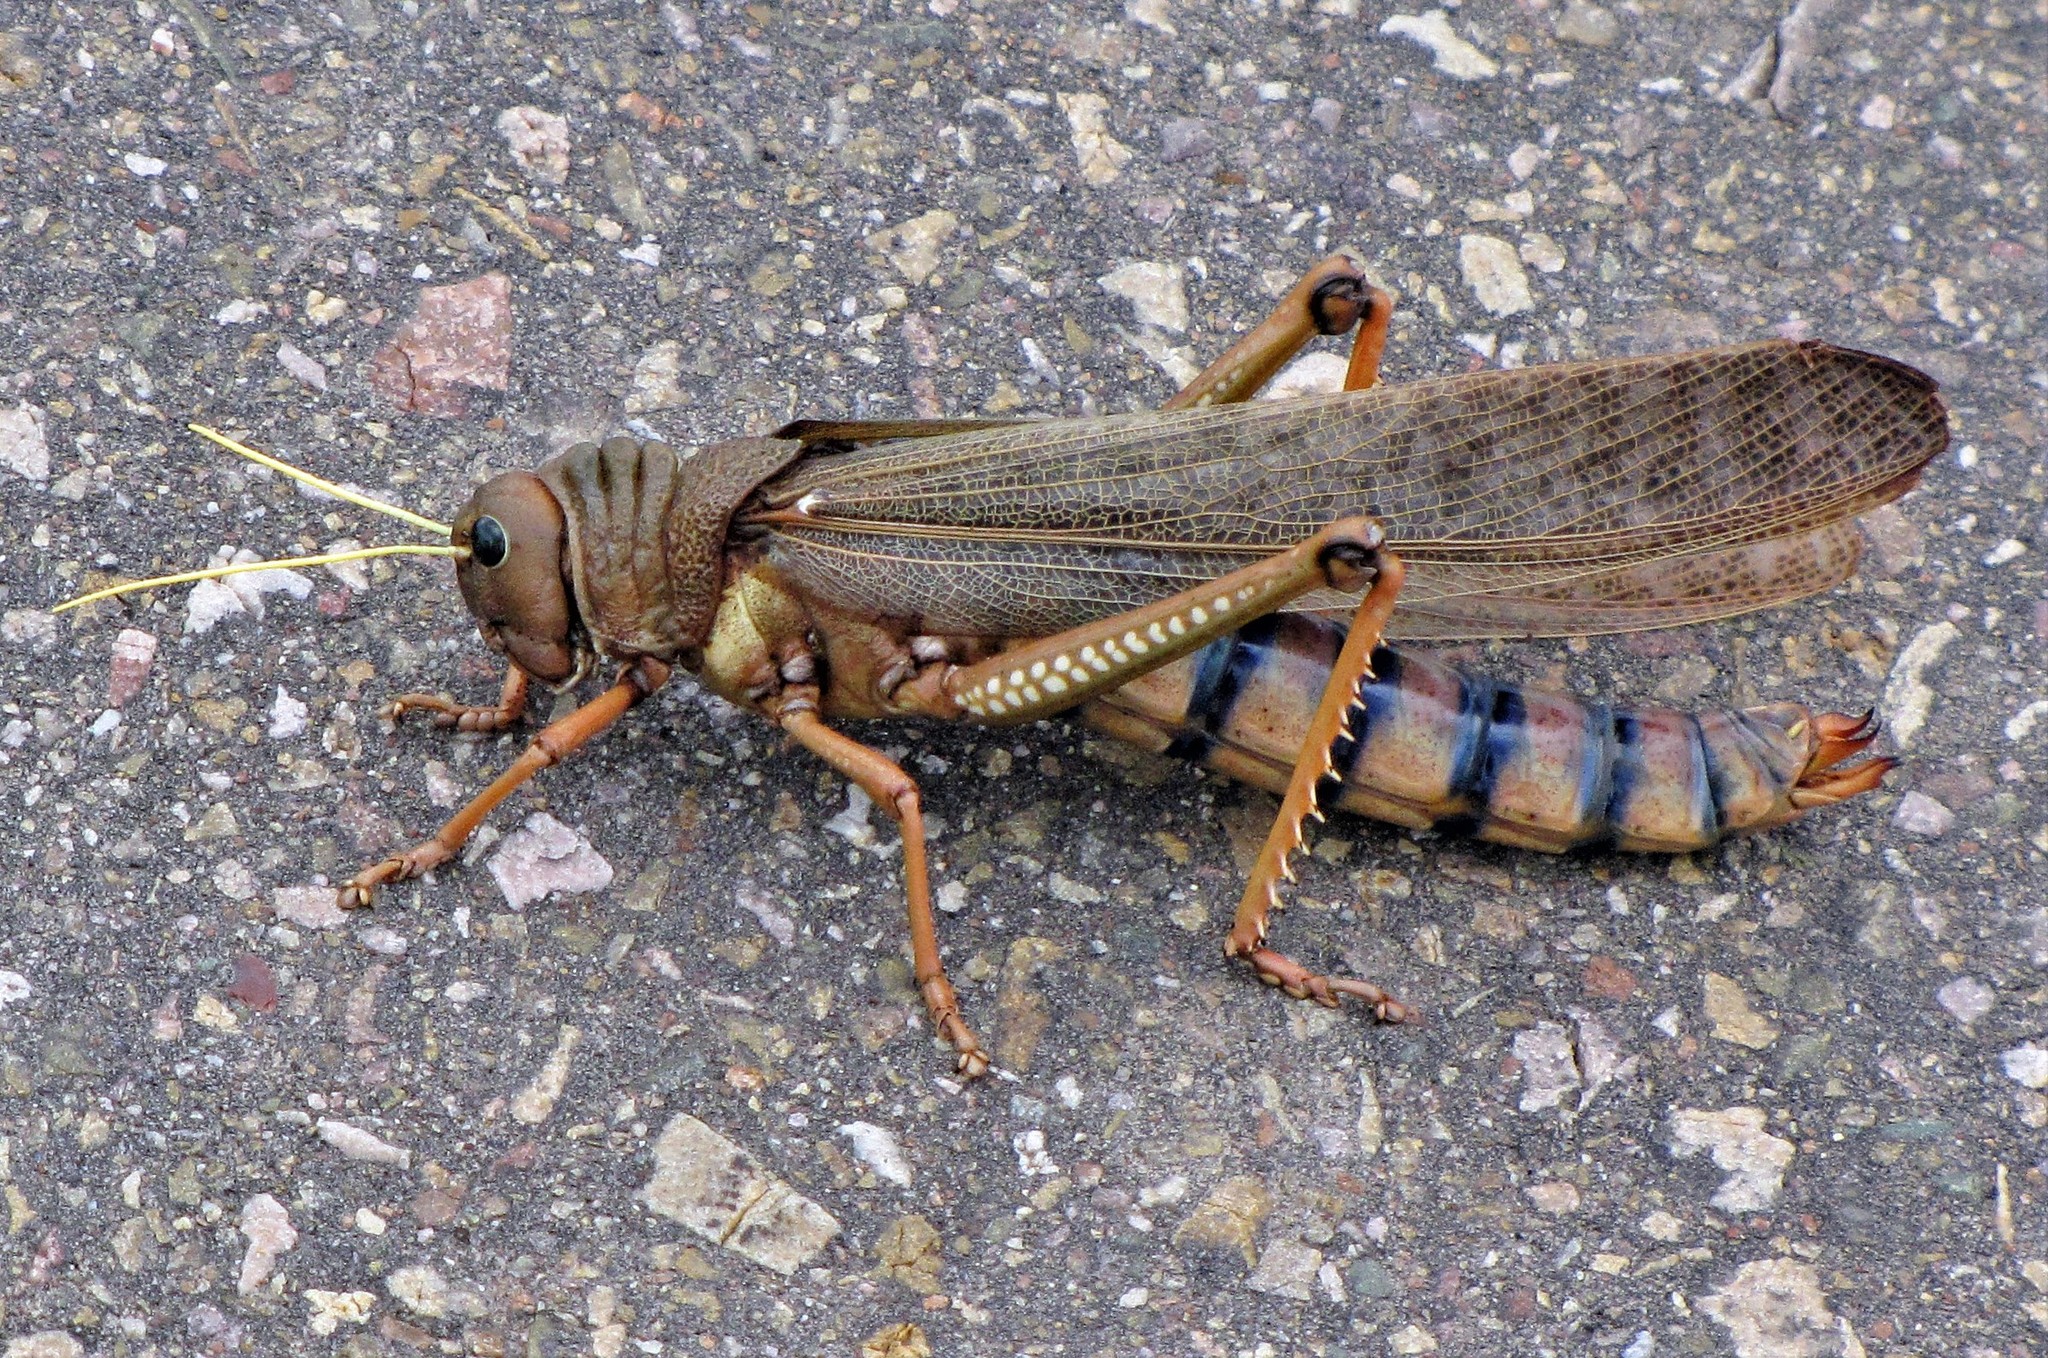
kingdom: Animalia
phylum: Arthropoda
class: Insecta
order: Orthoptera
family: Romaleidae
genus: Tropidacris
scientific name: Tropidacris collaris
